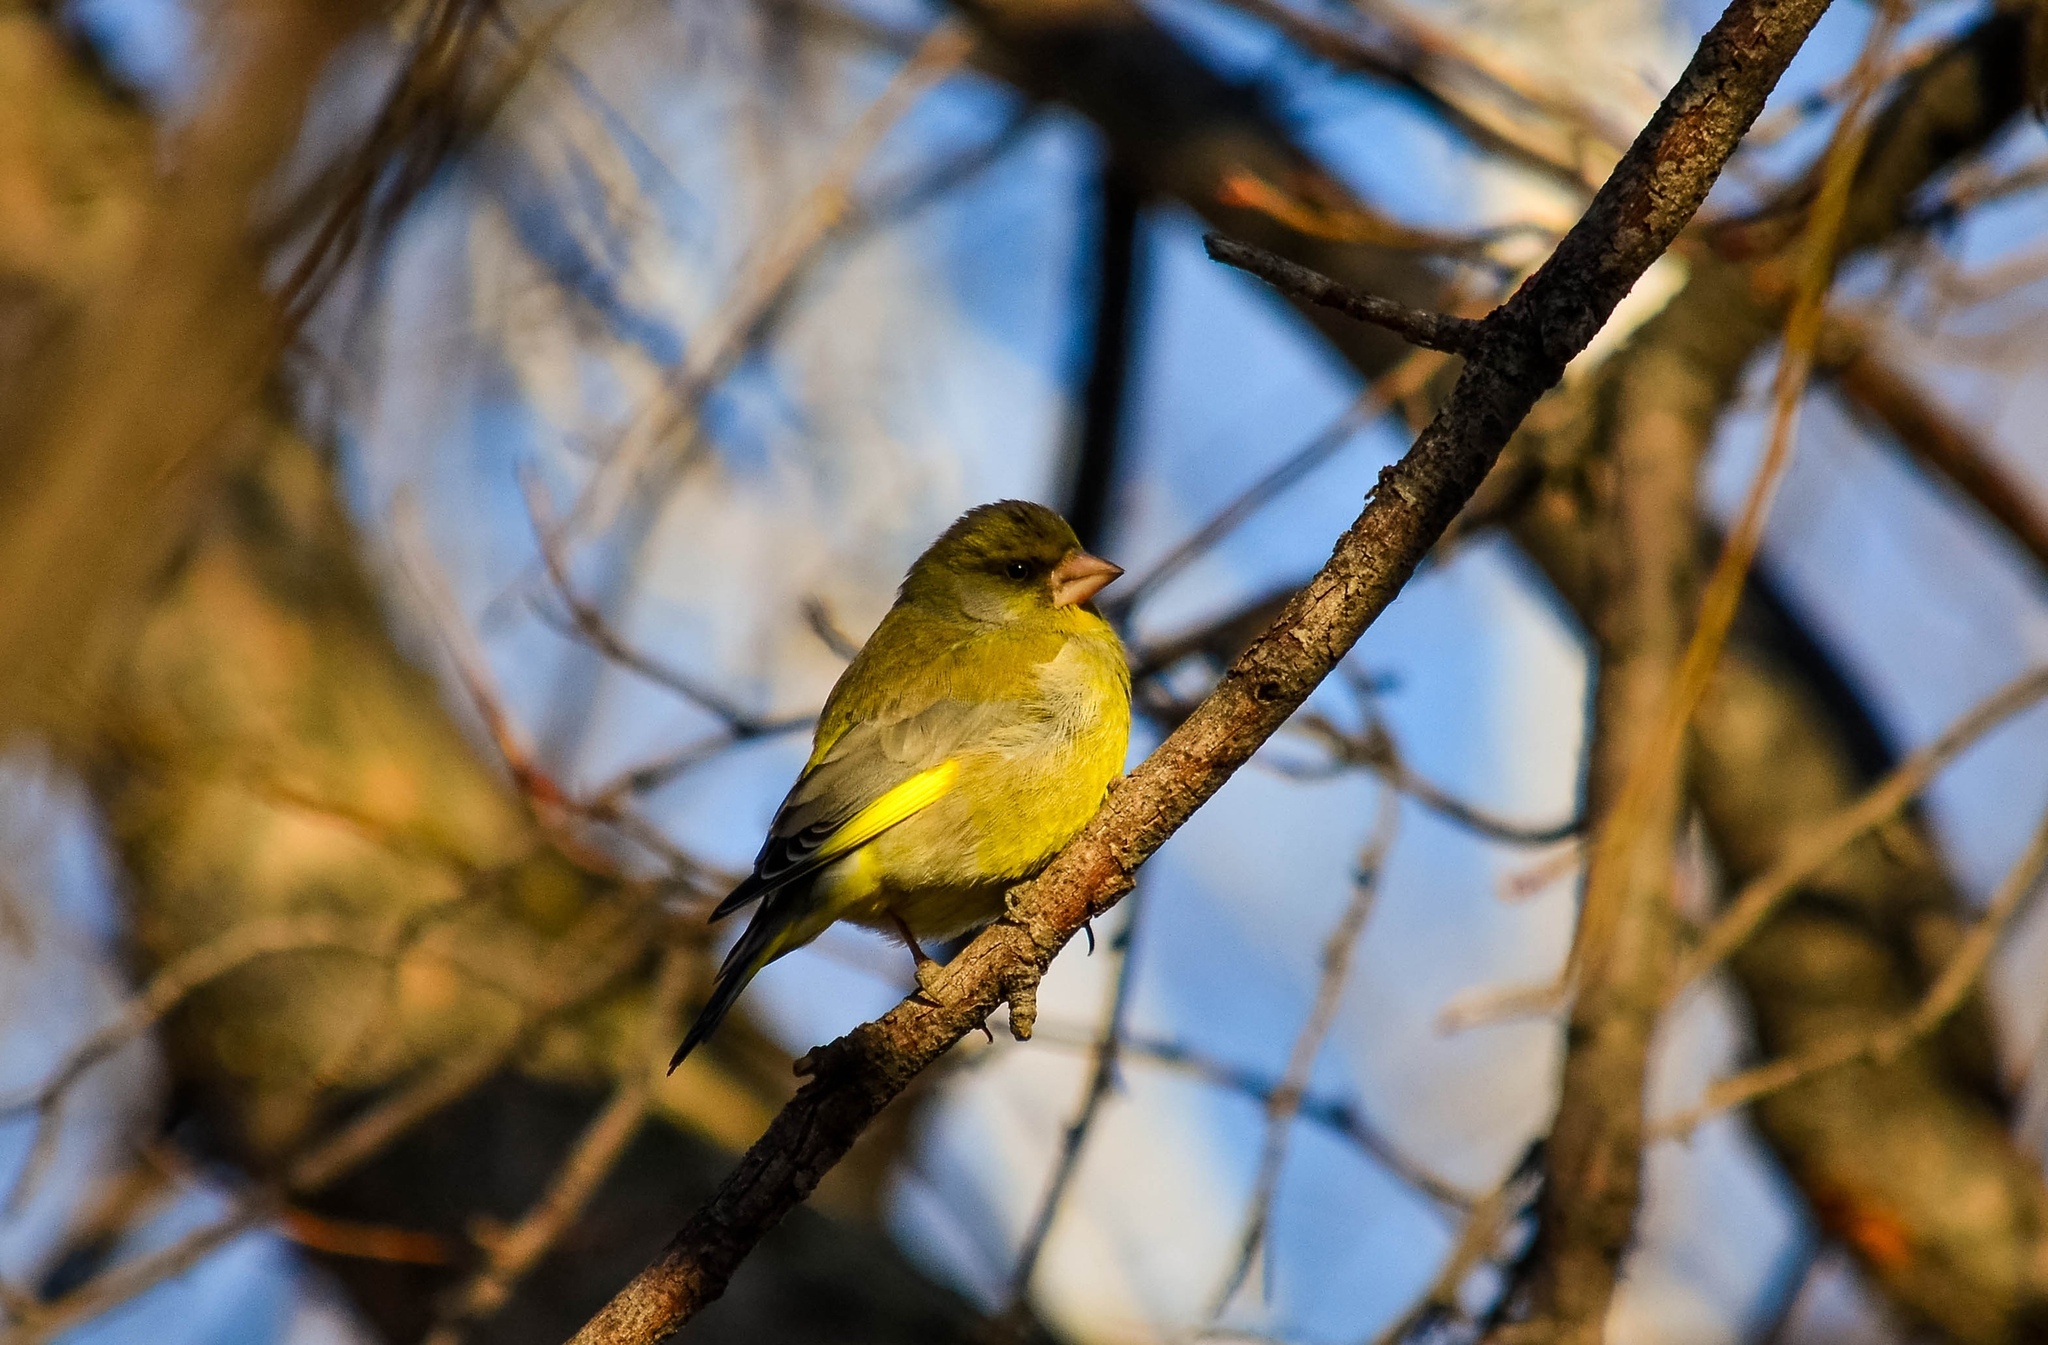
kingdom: Plantae
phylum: Tracheophyta
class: Liliopsida
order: Poales
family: Poaceae
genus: Chloris
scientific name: Chloris chloris
